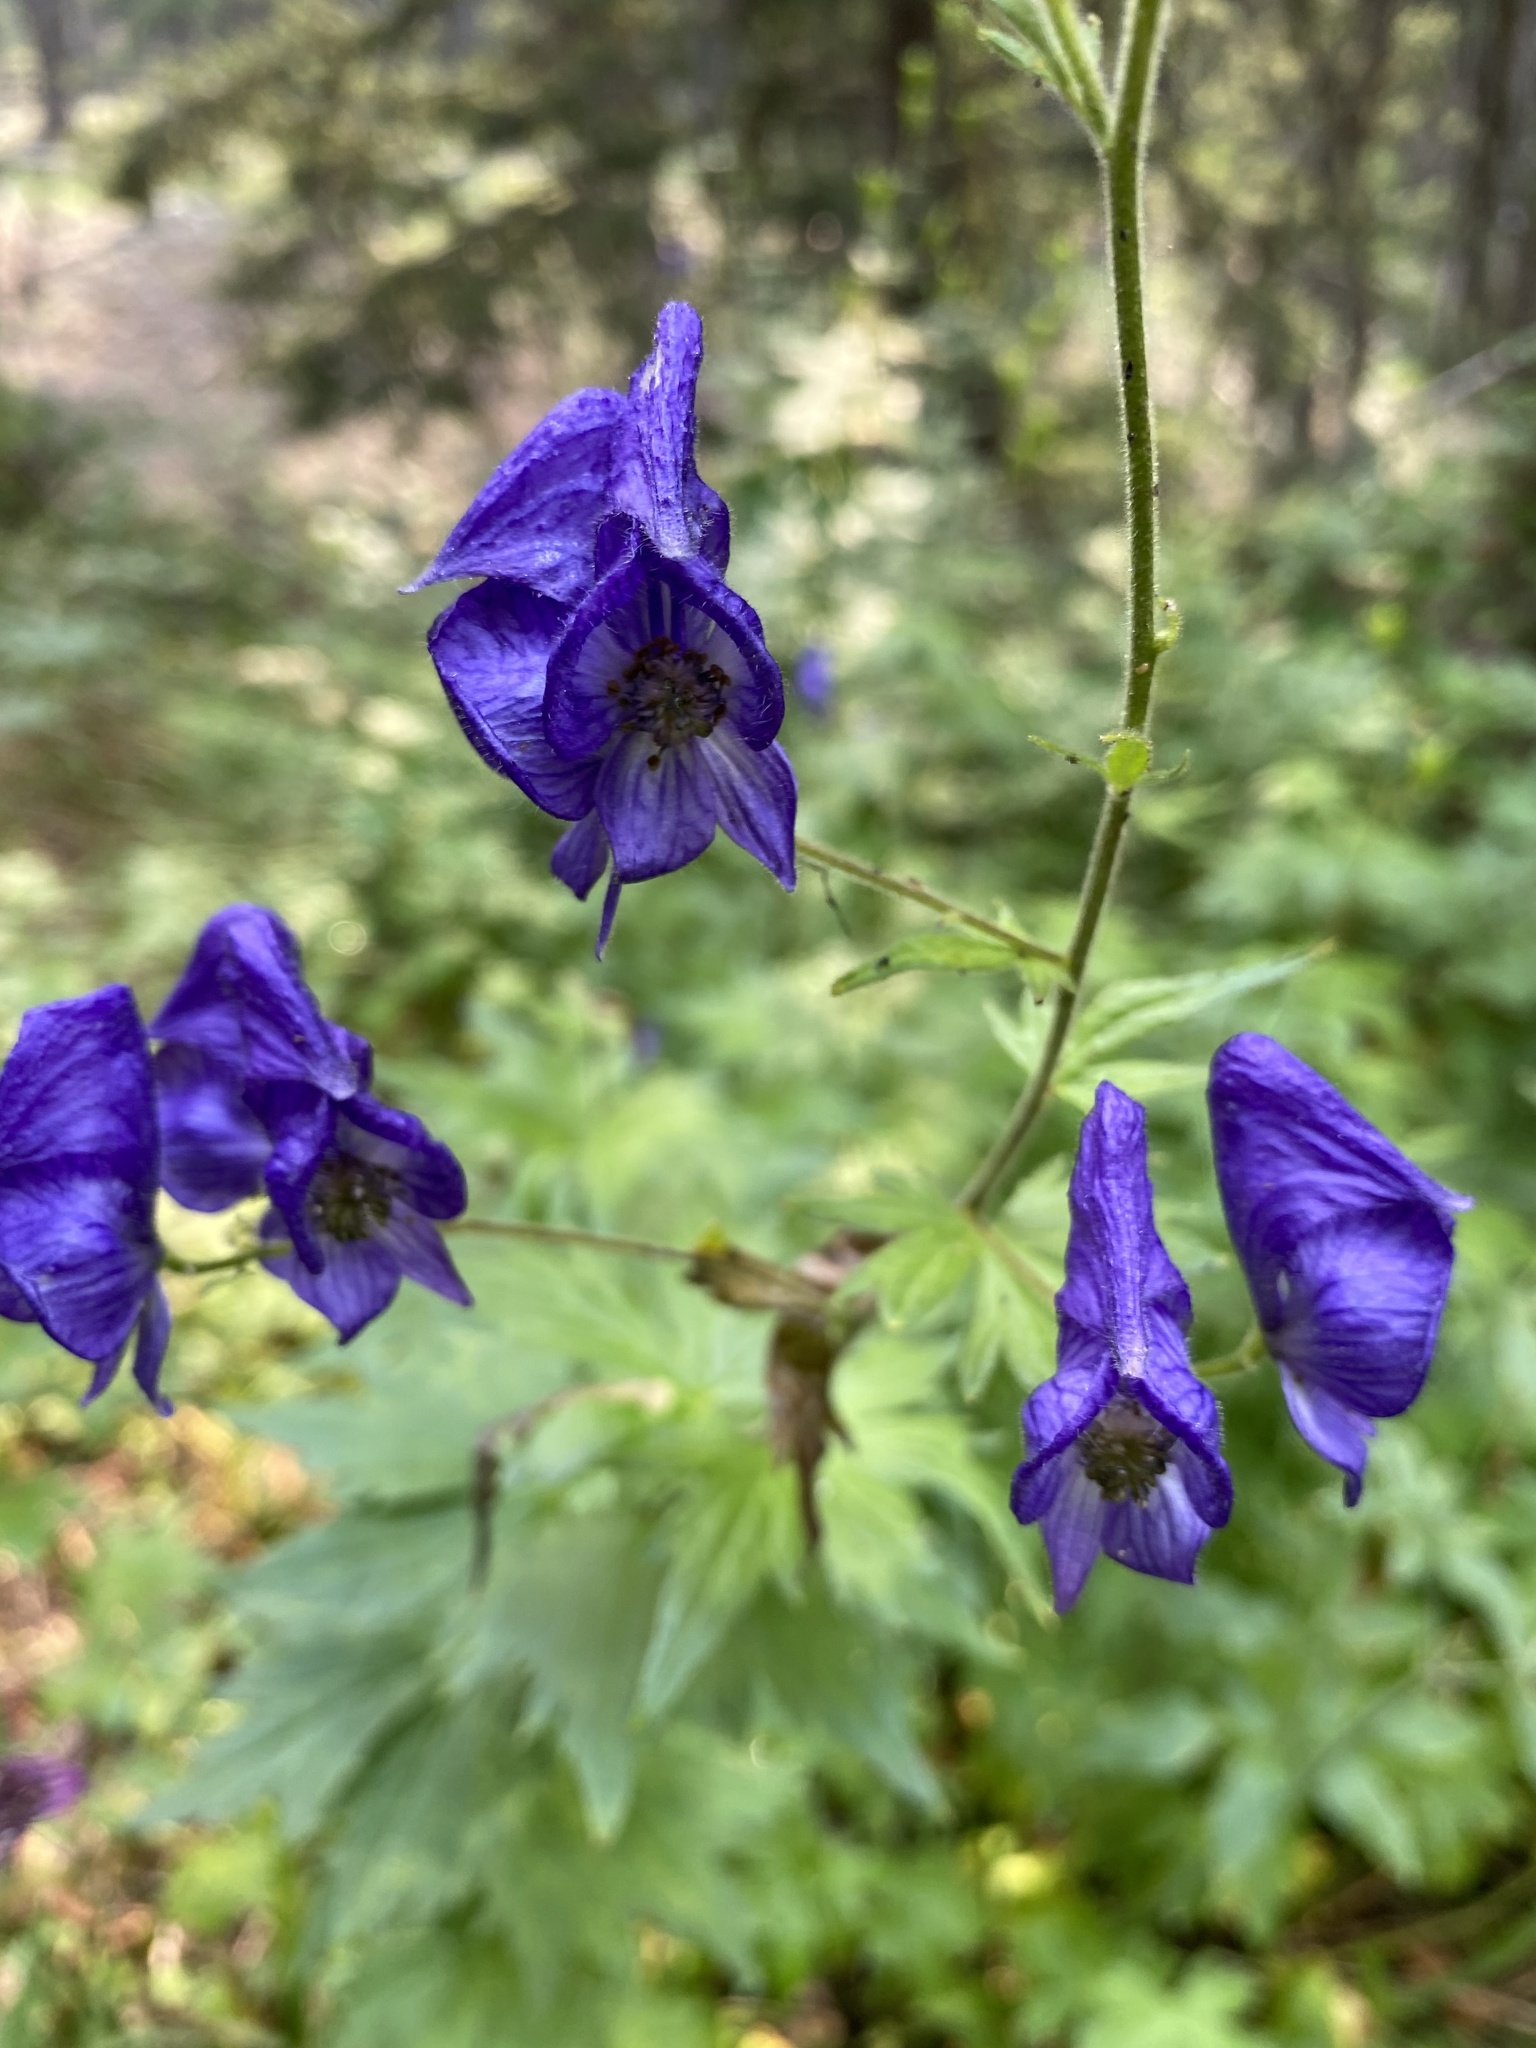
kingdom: Plantae
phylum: Tracheophyta
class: Magnoliopsida
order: Ranunculales
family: Ranunculaceae
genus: Aconitum
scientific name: Aconitum columbianum
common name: Columbia aconite
